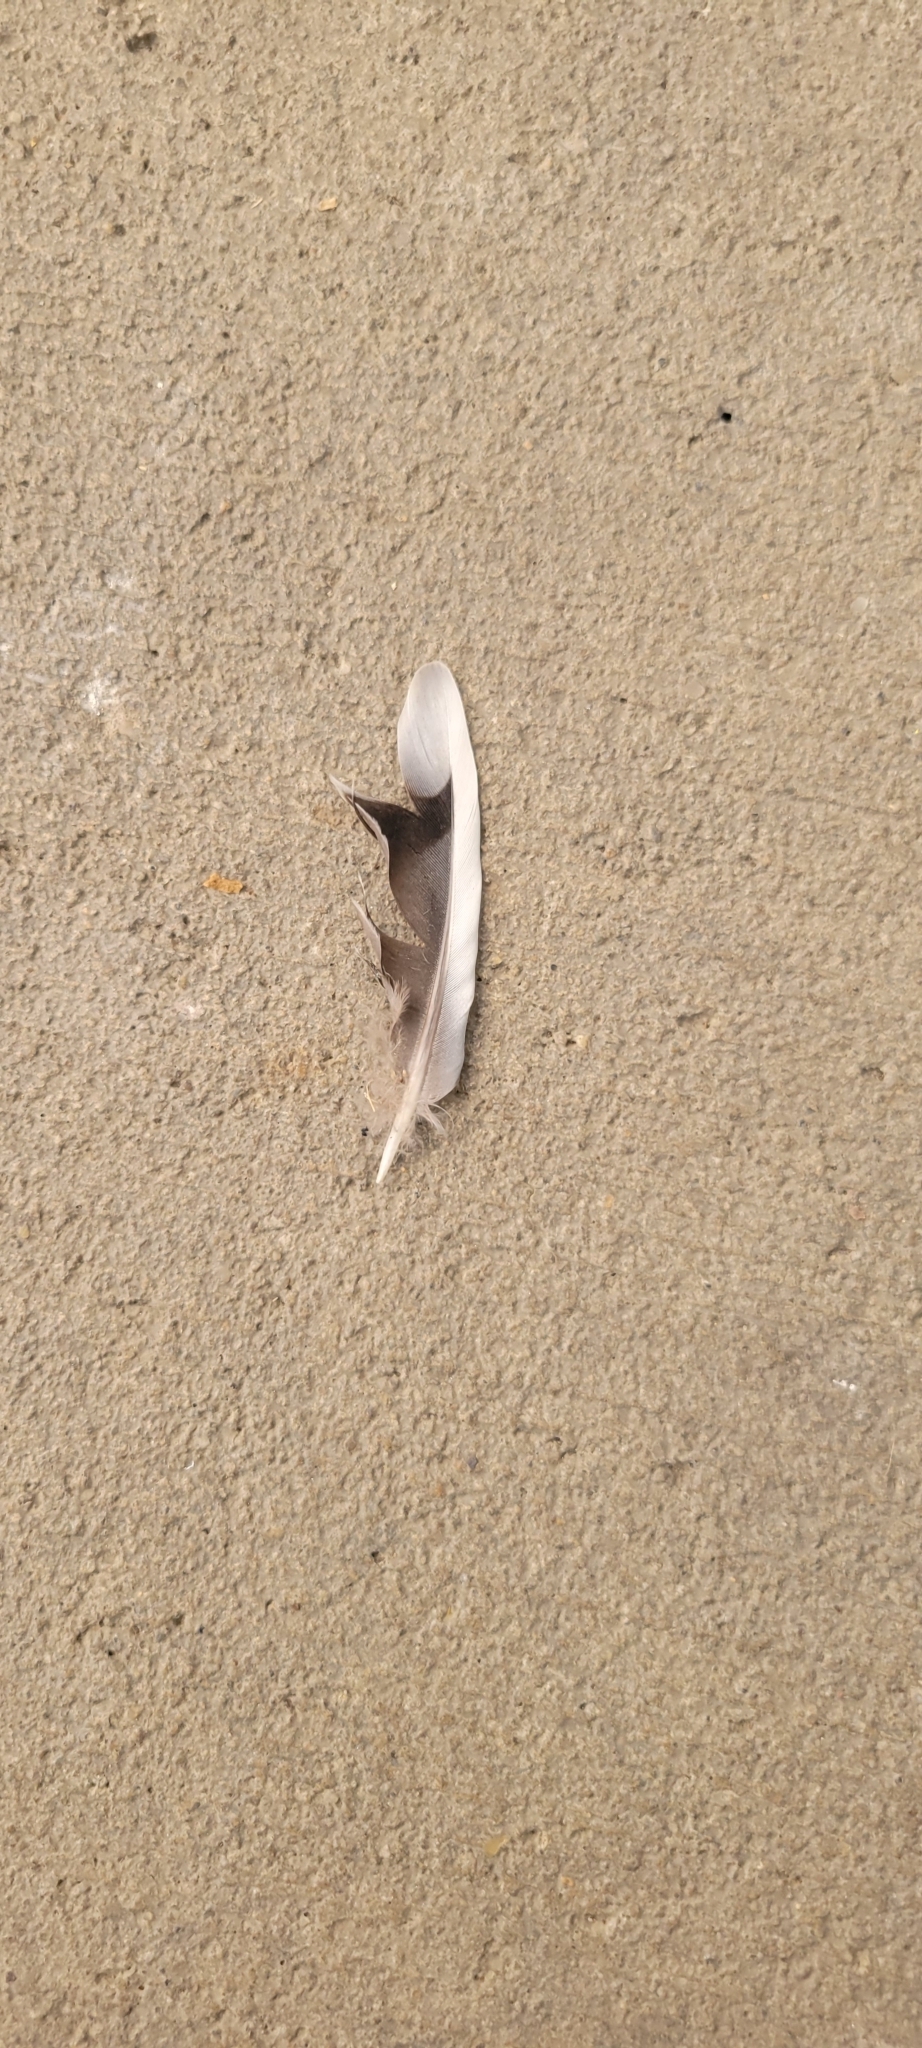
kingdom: Animalia
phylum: Chordata
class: Aves
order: Columbiformes
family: Columbidae
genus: Zenaida
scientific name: Zenaida macroura
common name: Mourning dove
